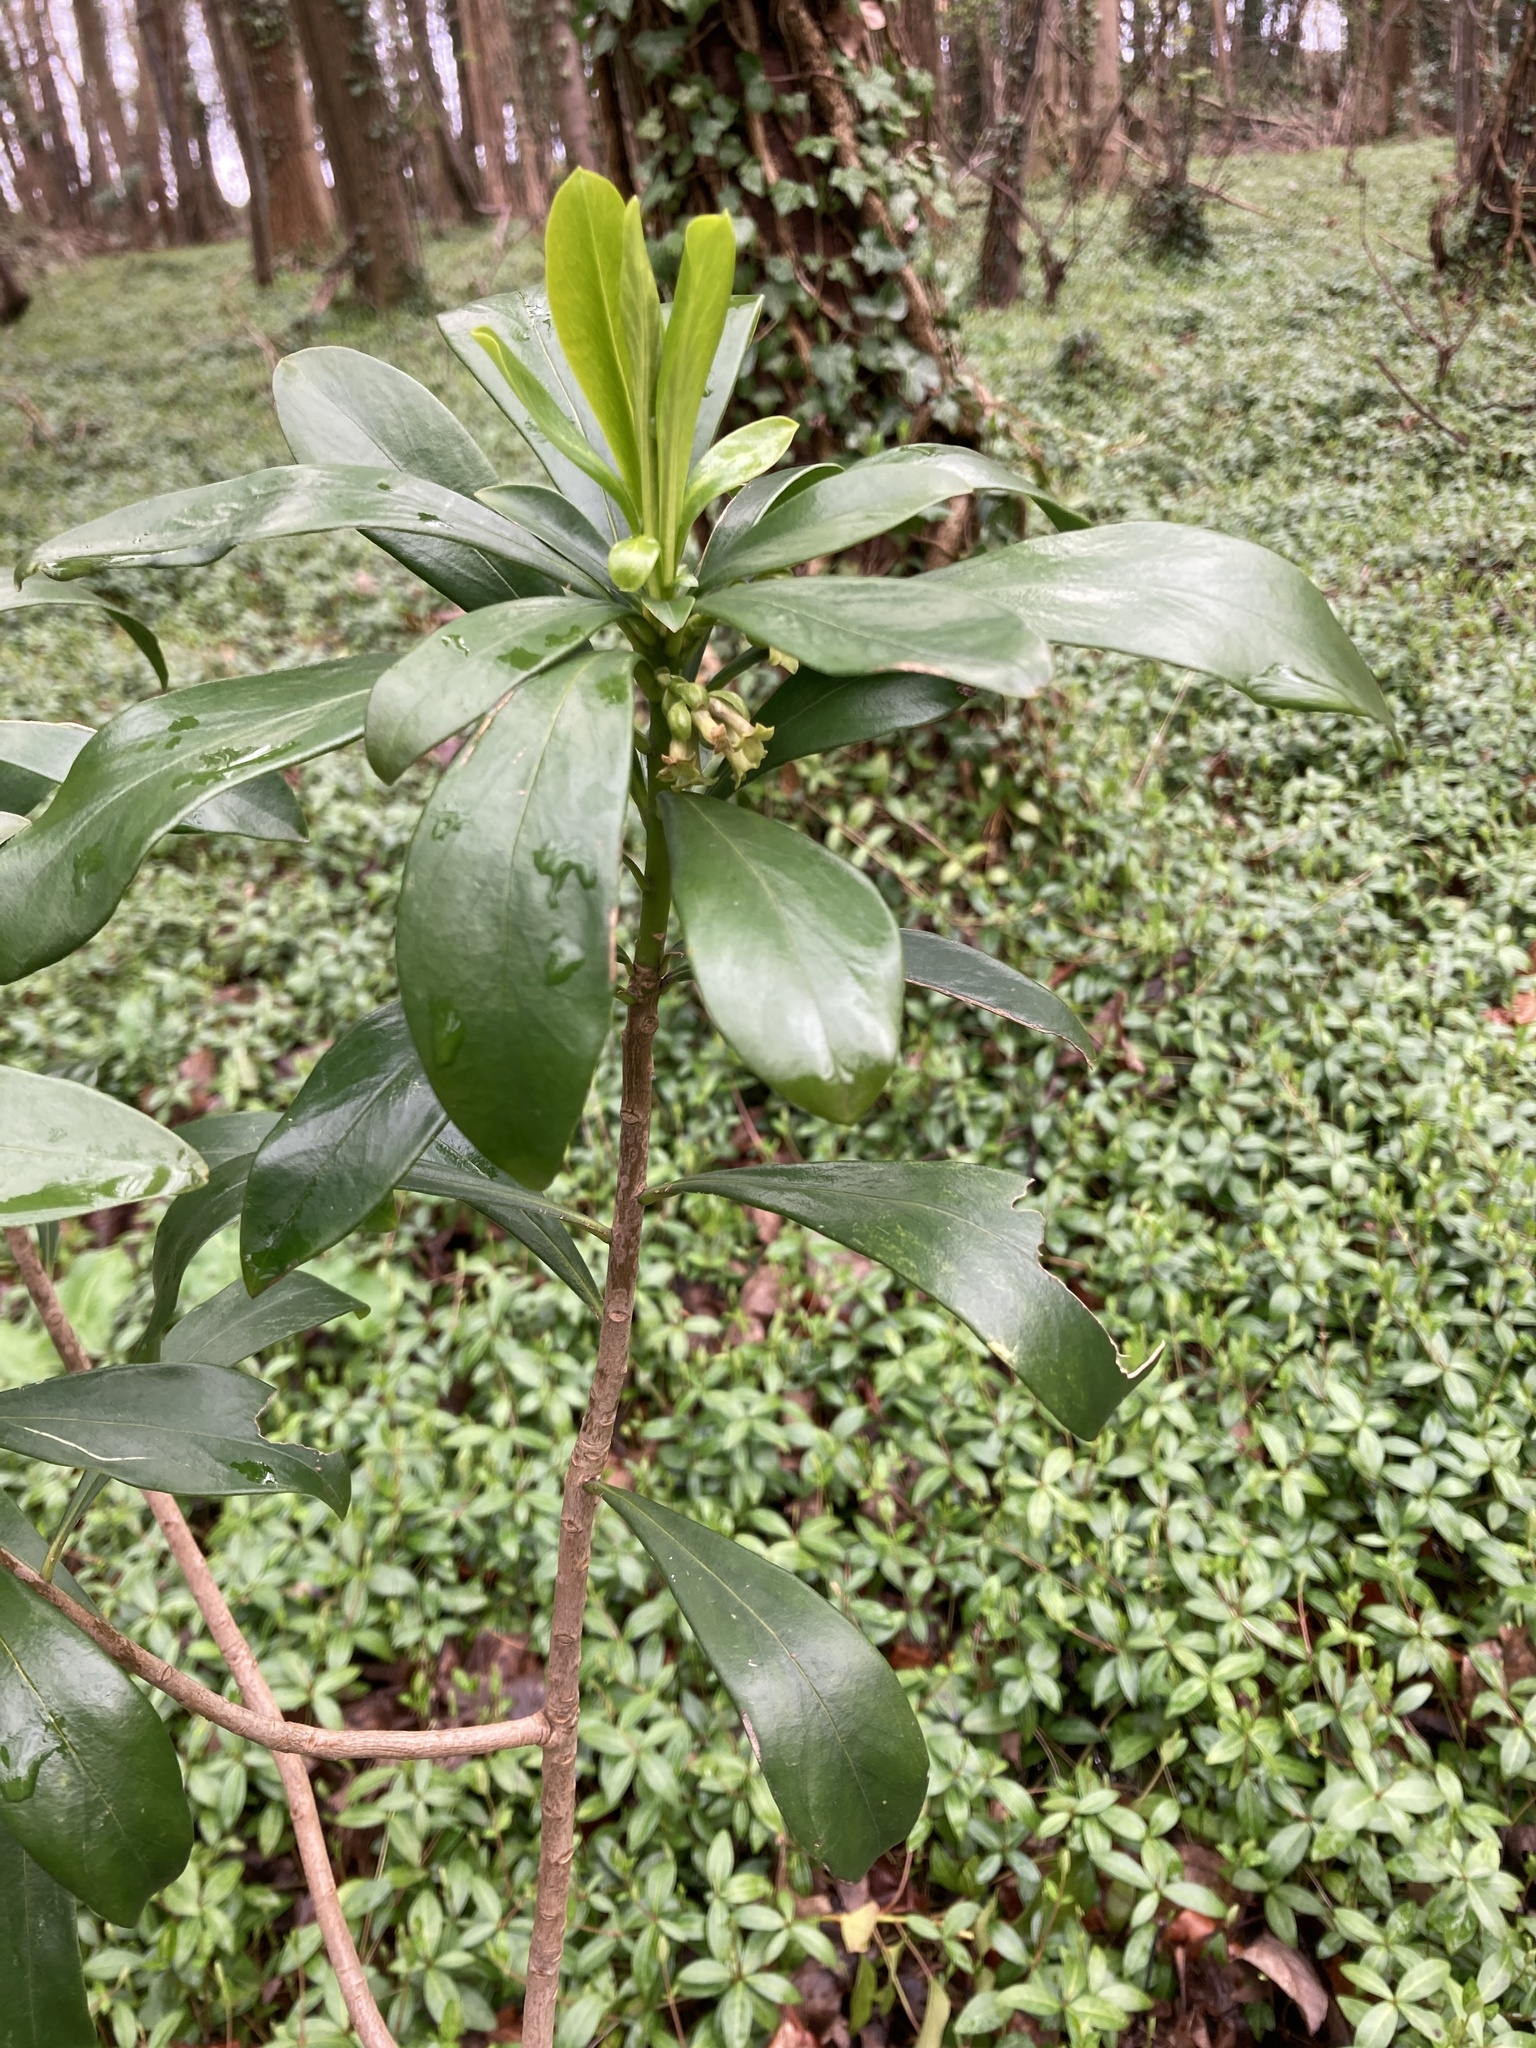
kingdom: Plantae
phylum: Tracheophyta
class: Magnoliopsida
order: Malvales
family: Thymelaeaceae
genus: Daphne
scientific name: Daphne laureola
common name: Spurge-laurel
